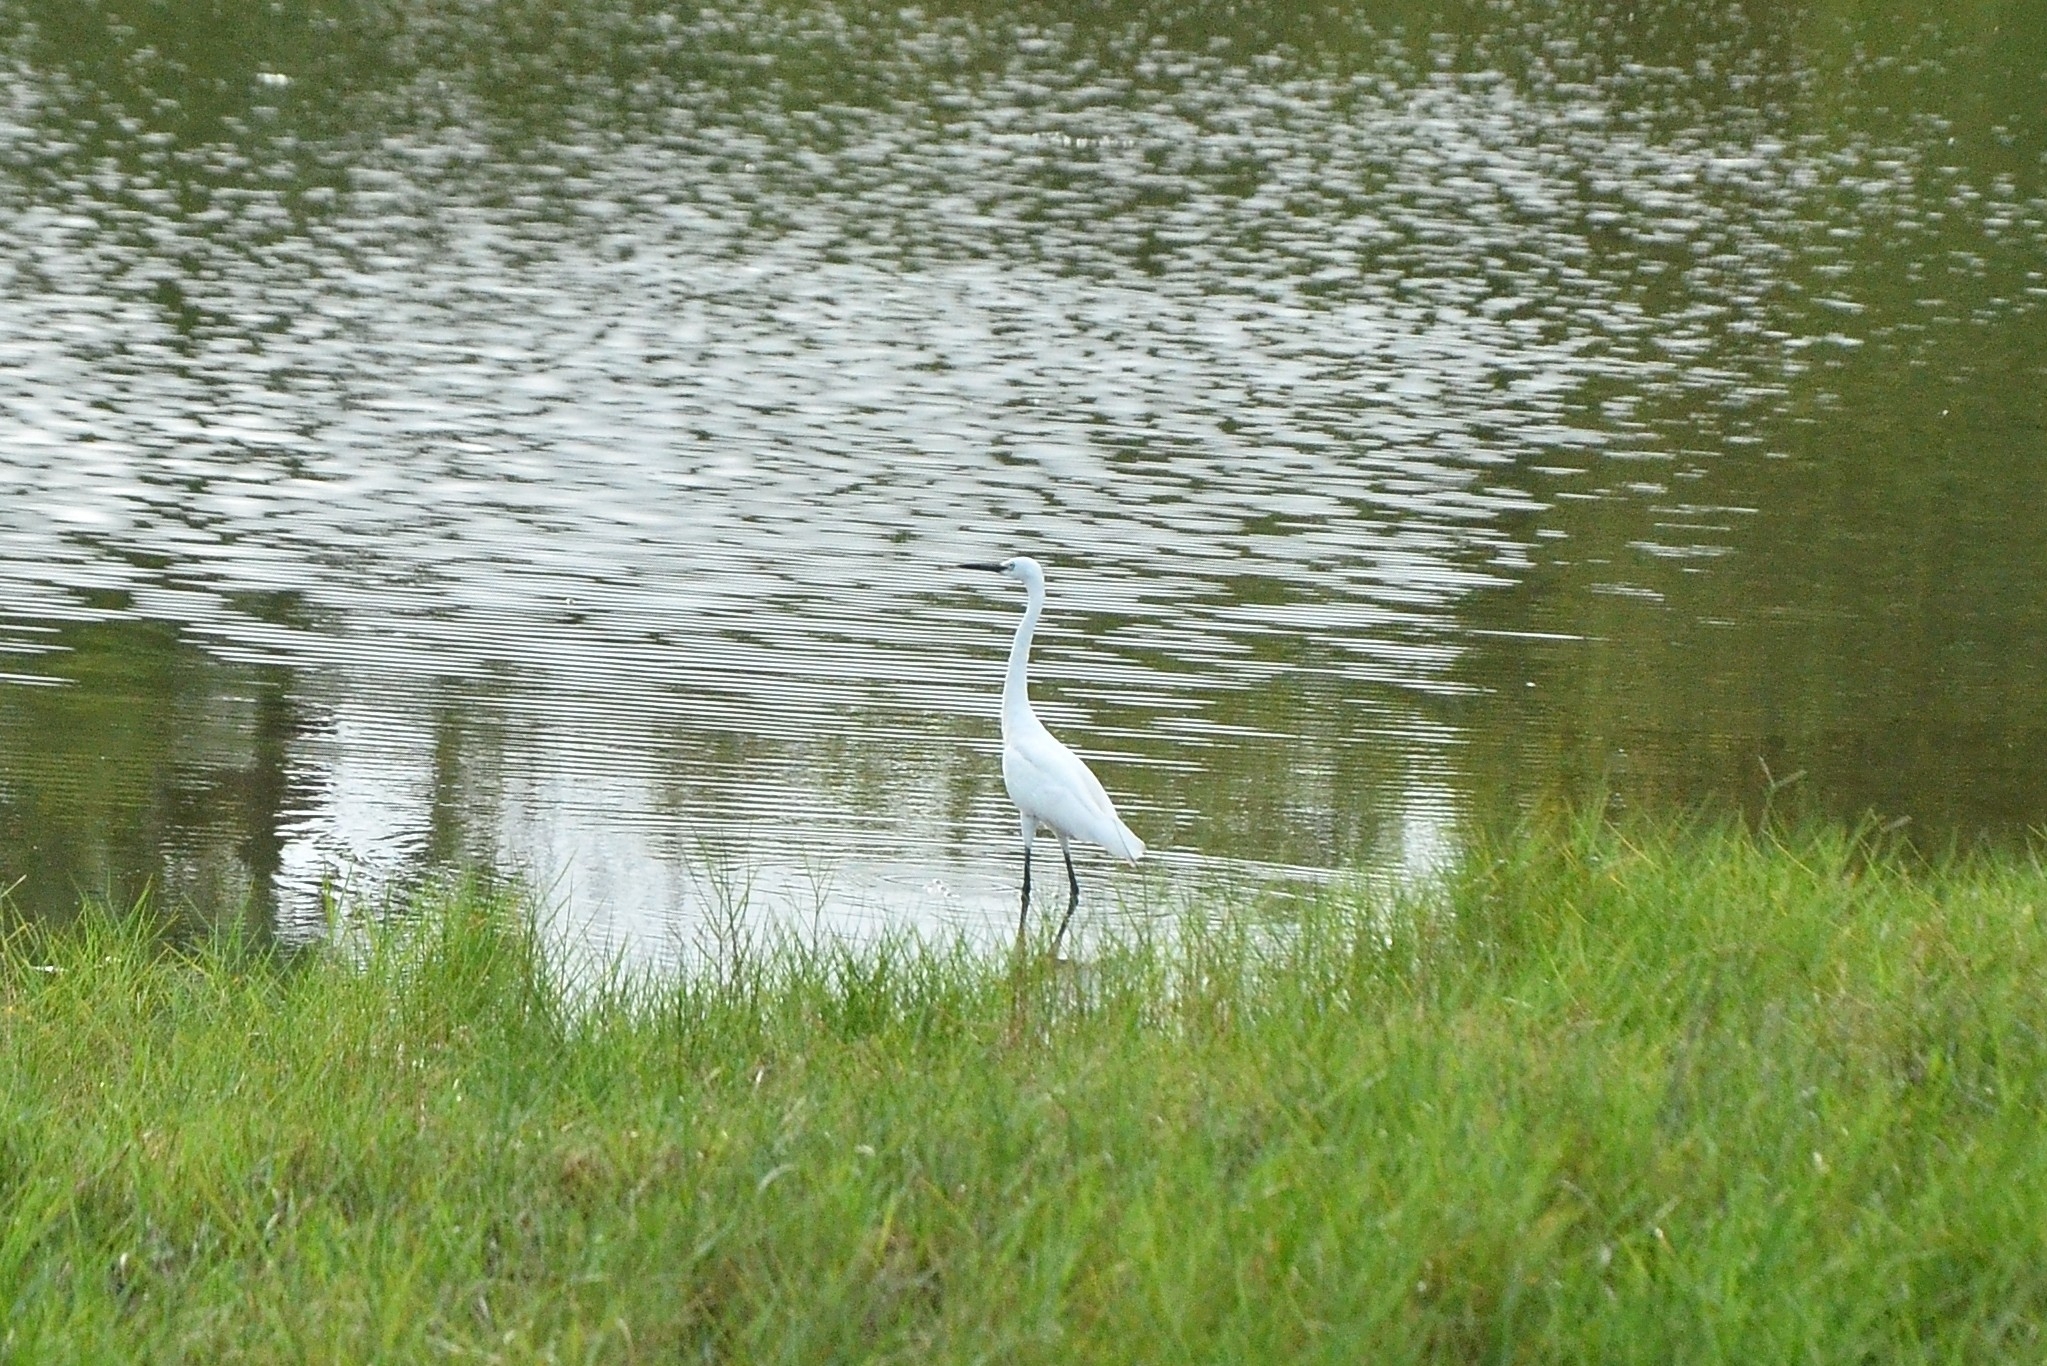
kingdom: Animalia
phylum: Chordata
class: Aves
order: Pelecaniformes
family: Ardeidae
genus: Egretta
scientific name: Egretta garzetta
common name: Little egret
